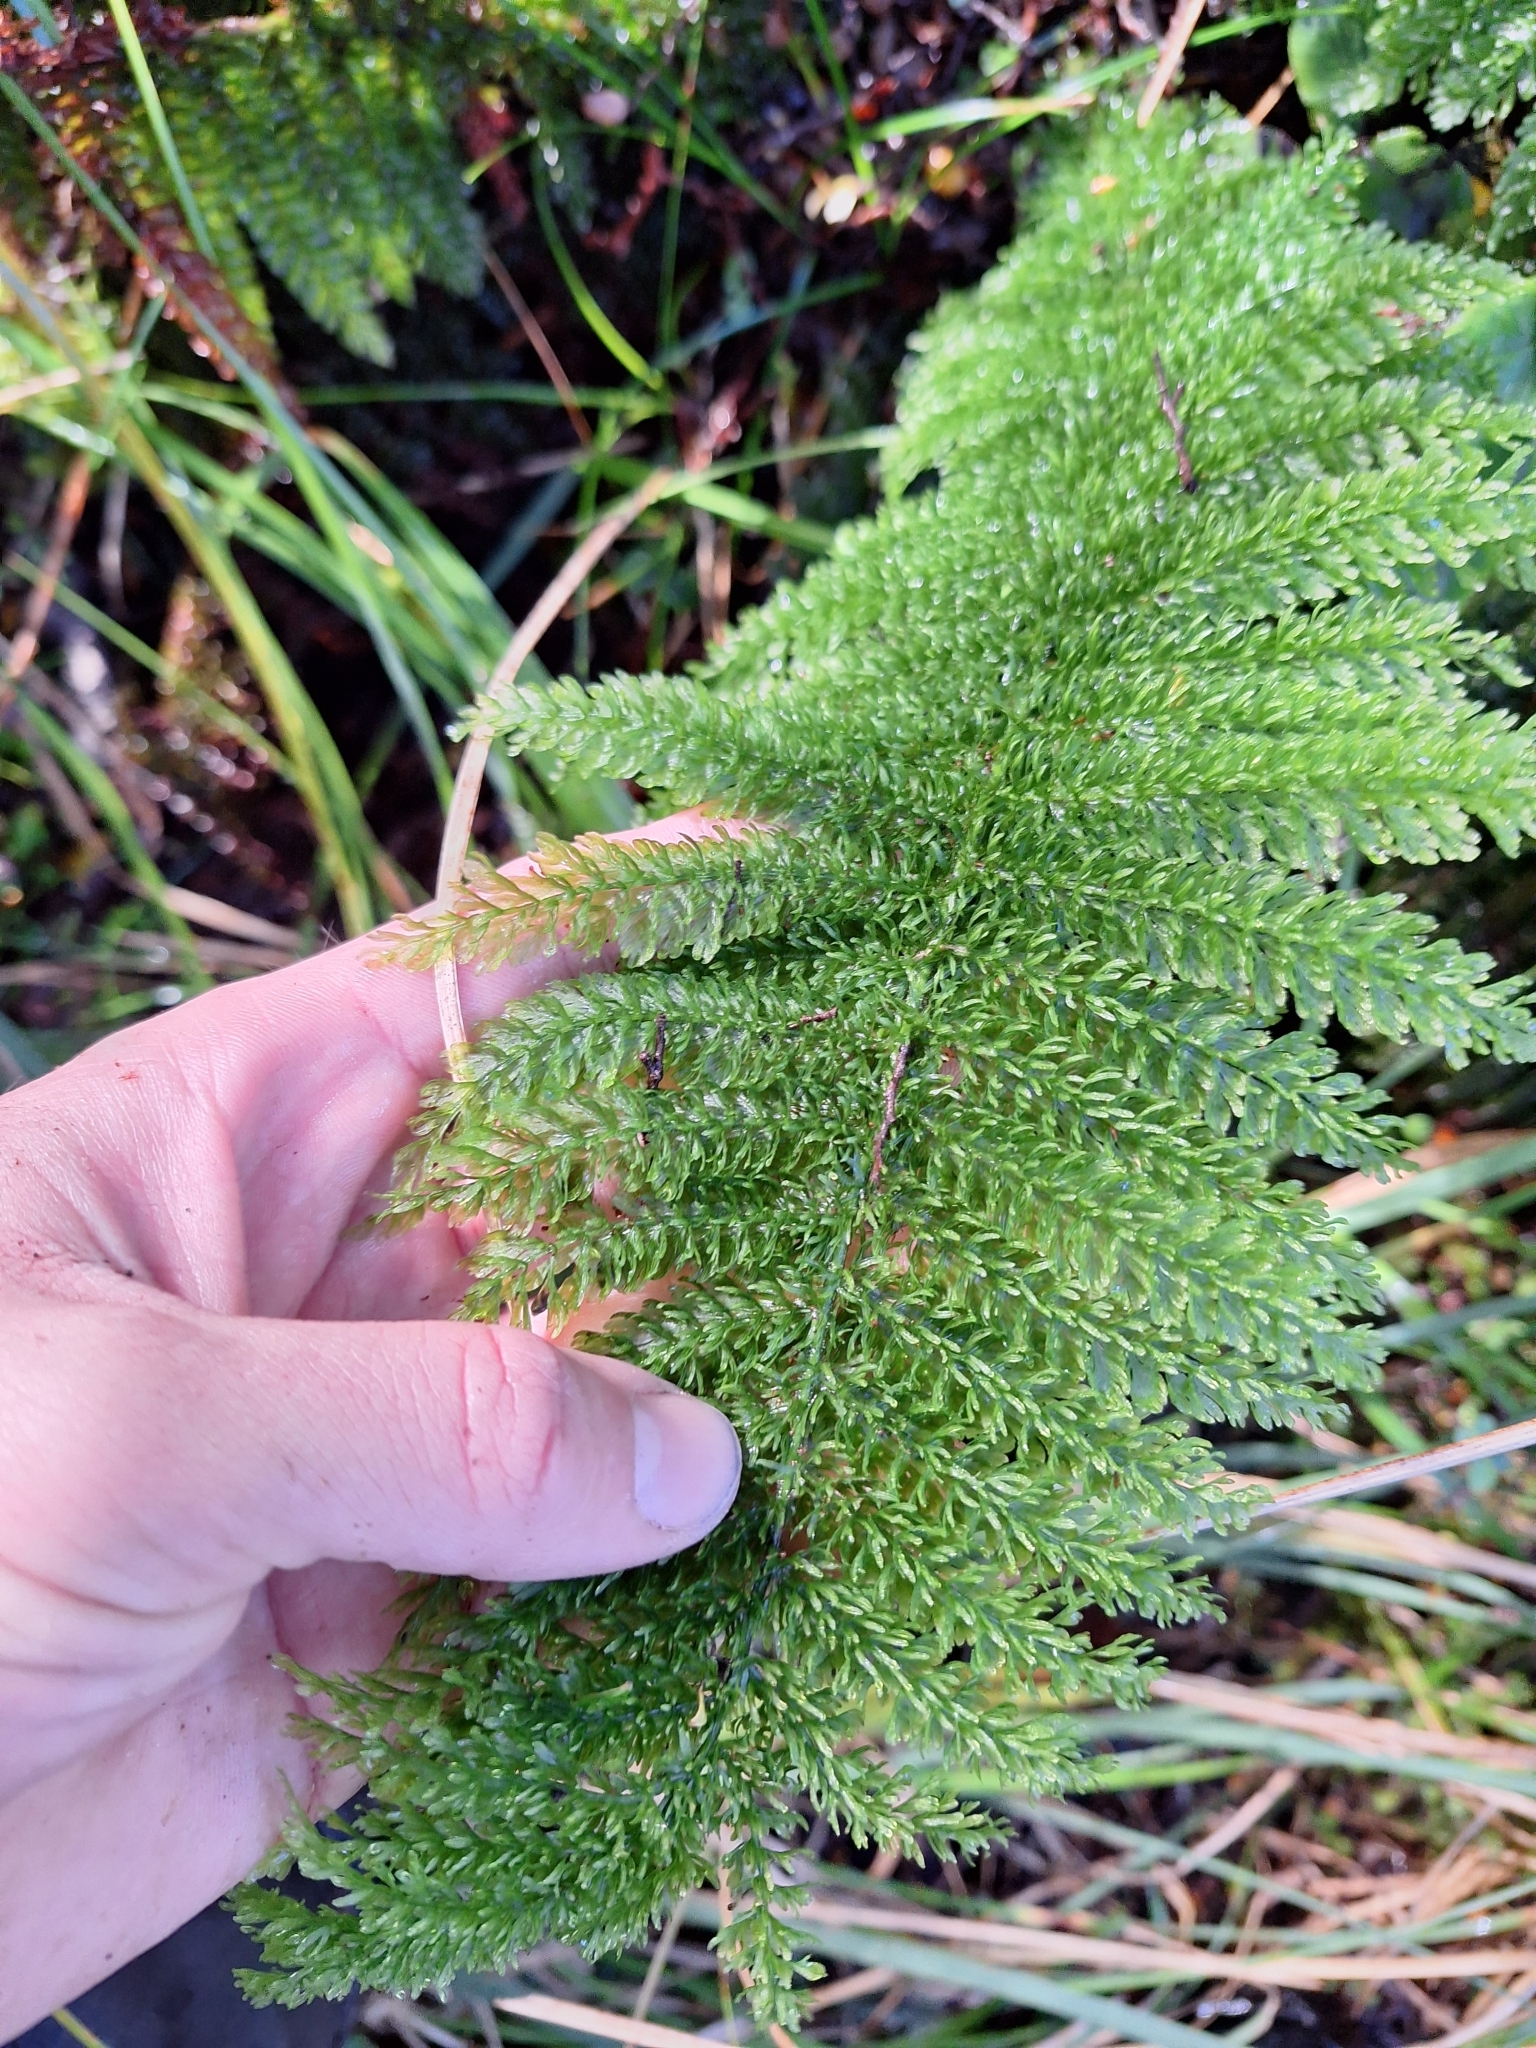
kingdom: Plantae
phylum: Tracheophyta
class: Polypodiopsida
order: Osmundales
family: Osmundaceae
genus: Leptopteris
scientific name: Leptopteris superba
